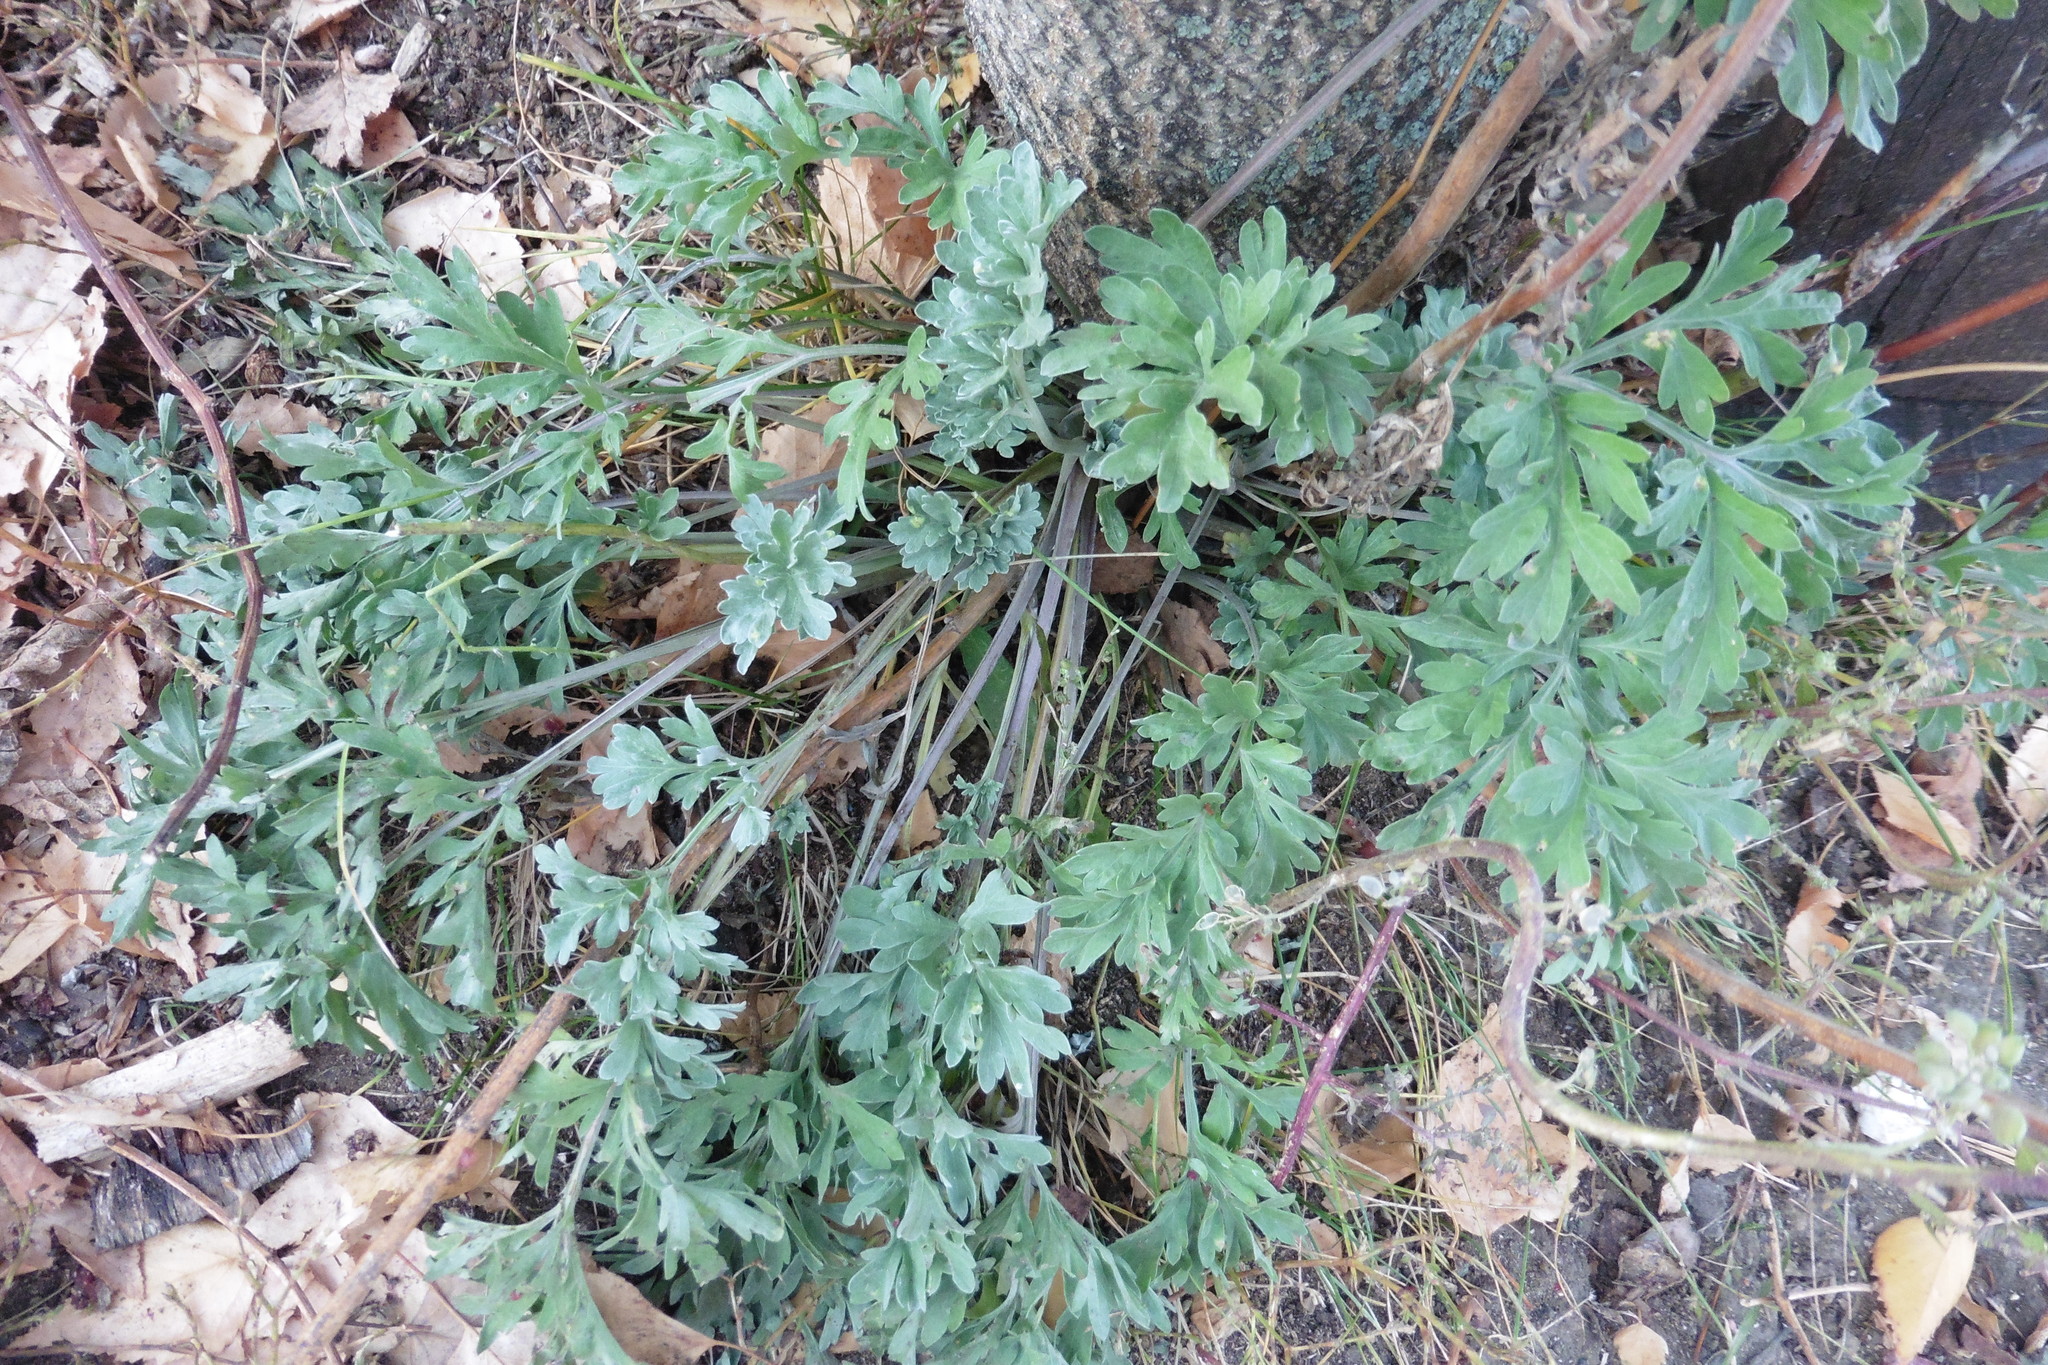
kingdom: Plantae
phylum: Tracheophyta
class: Magnoliopsida
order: Asterales
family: Asteraceae
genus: Artemisia
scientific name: Artemisia absinthium
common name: Wormwood
